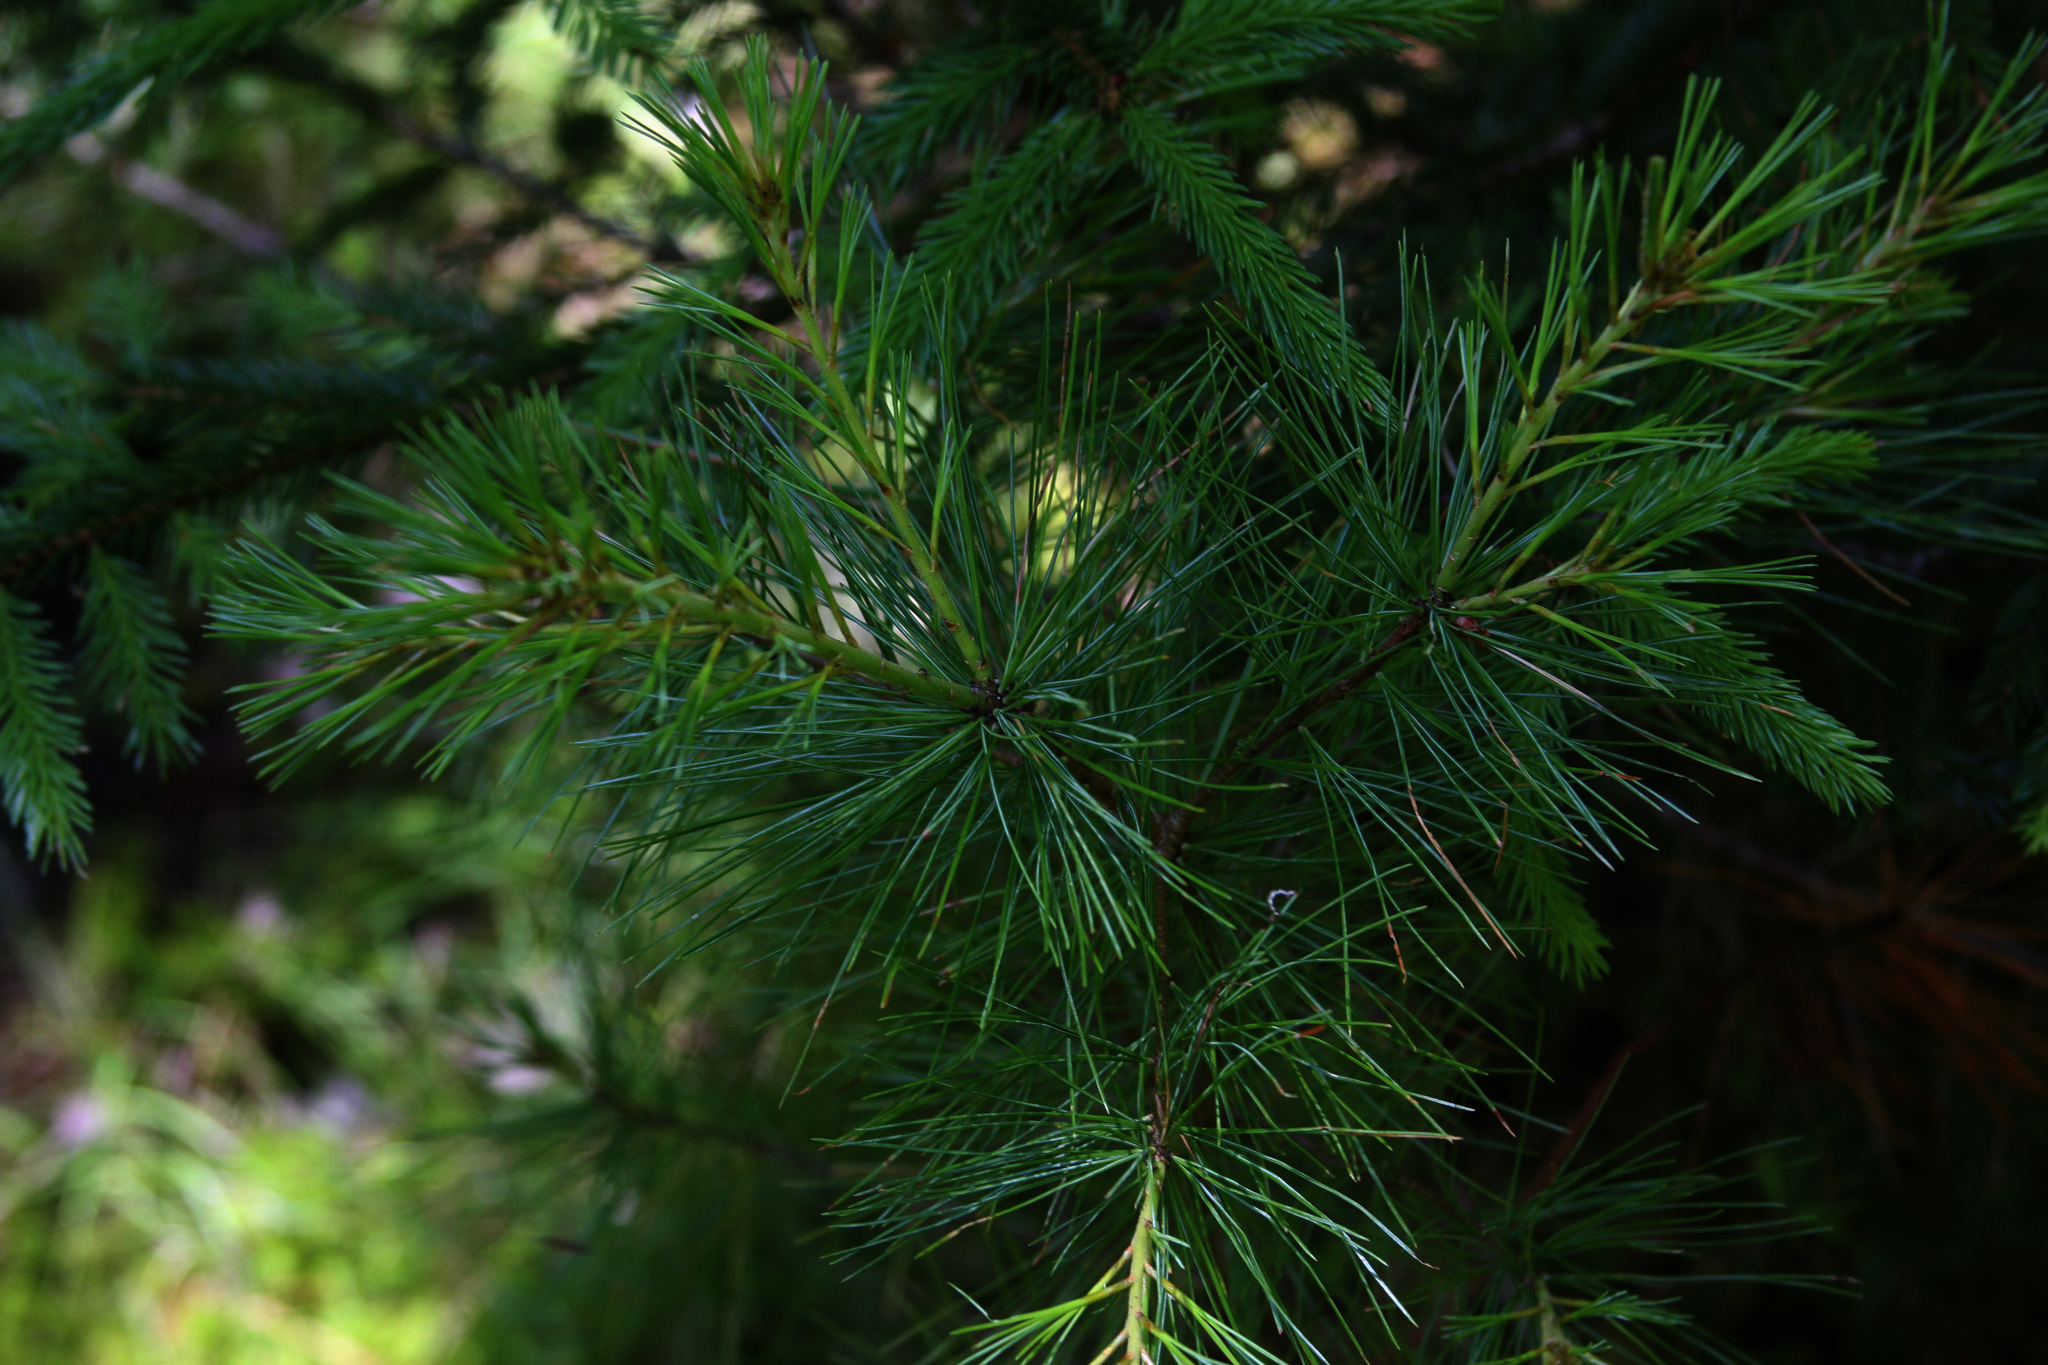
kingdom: Plantae
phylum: Tracheophyta
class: Pinopsida
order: Pinales
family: Pinaceae
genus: Pinus
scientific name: Pinus strobus
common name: Weymouth pine
